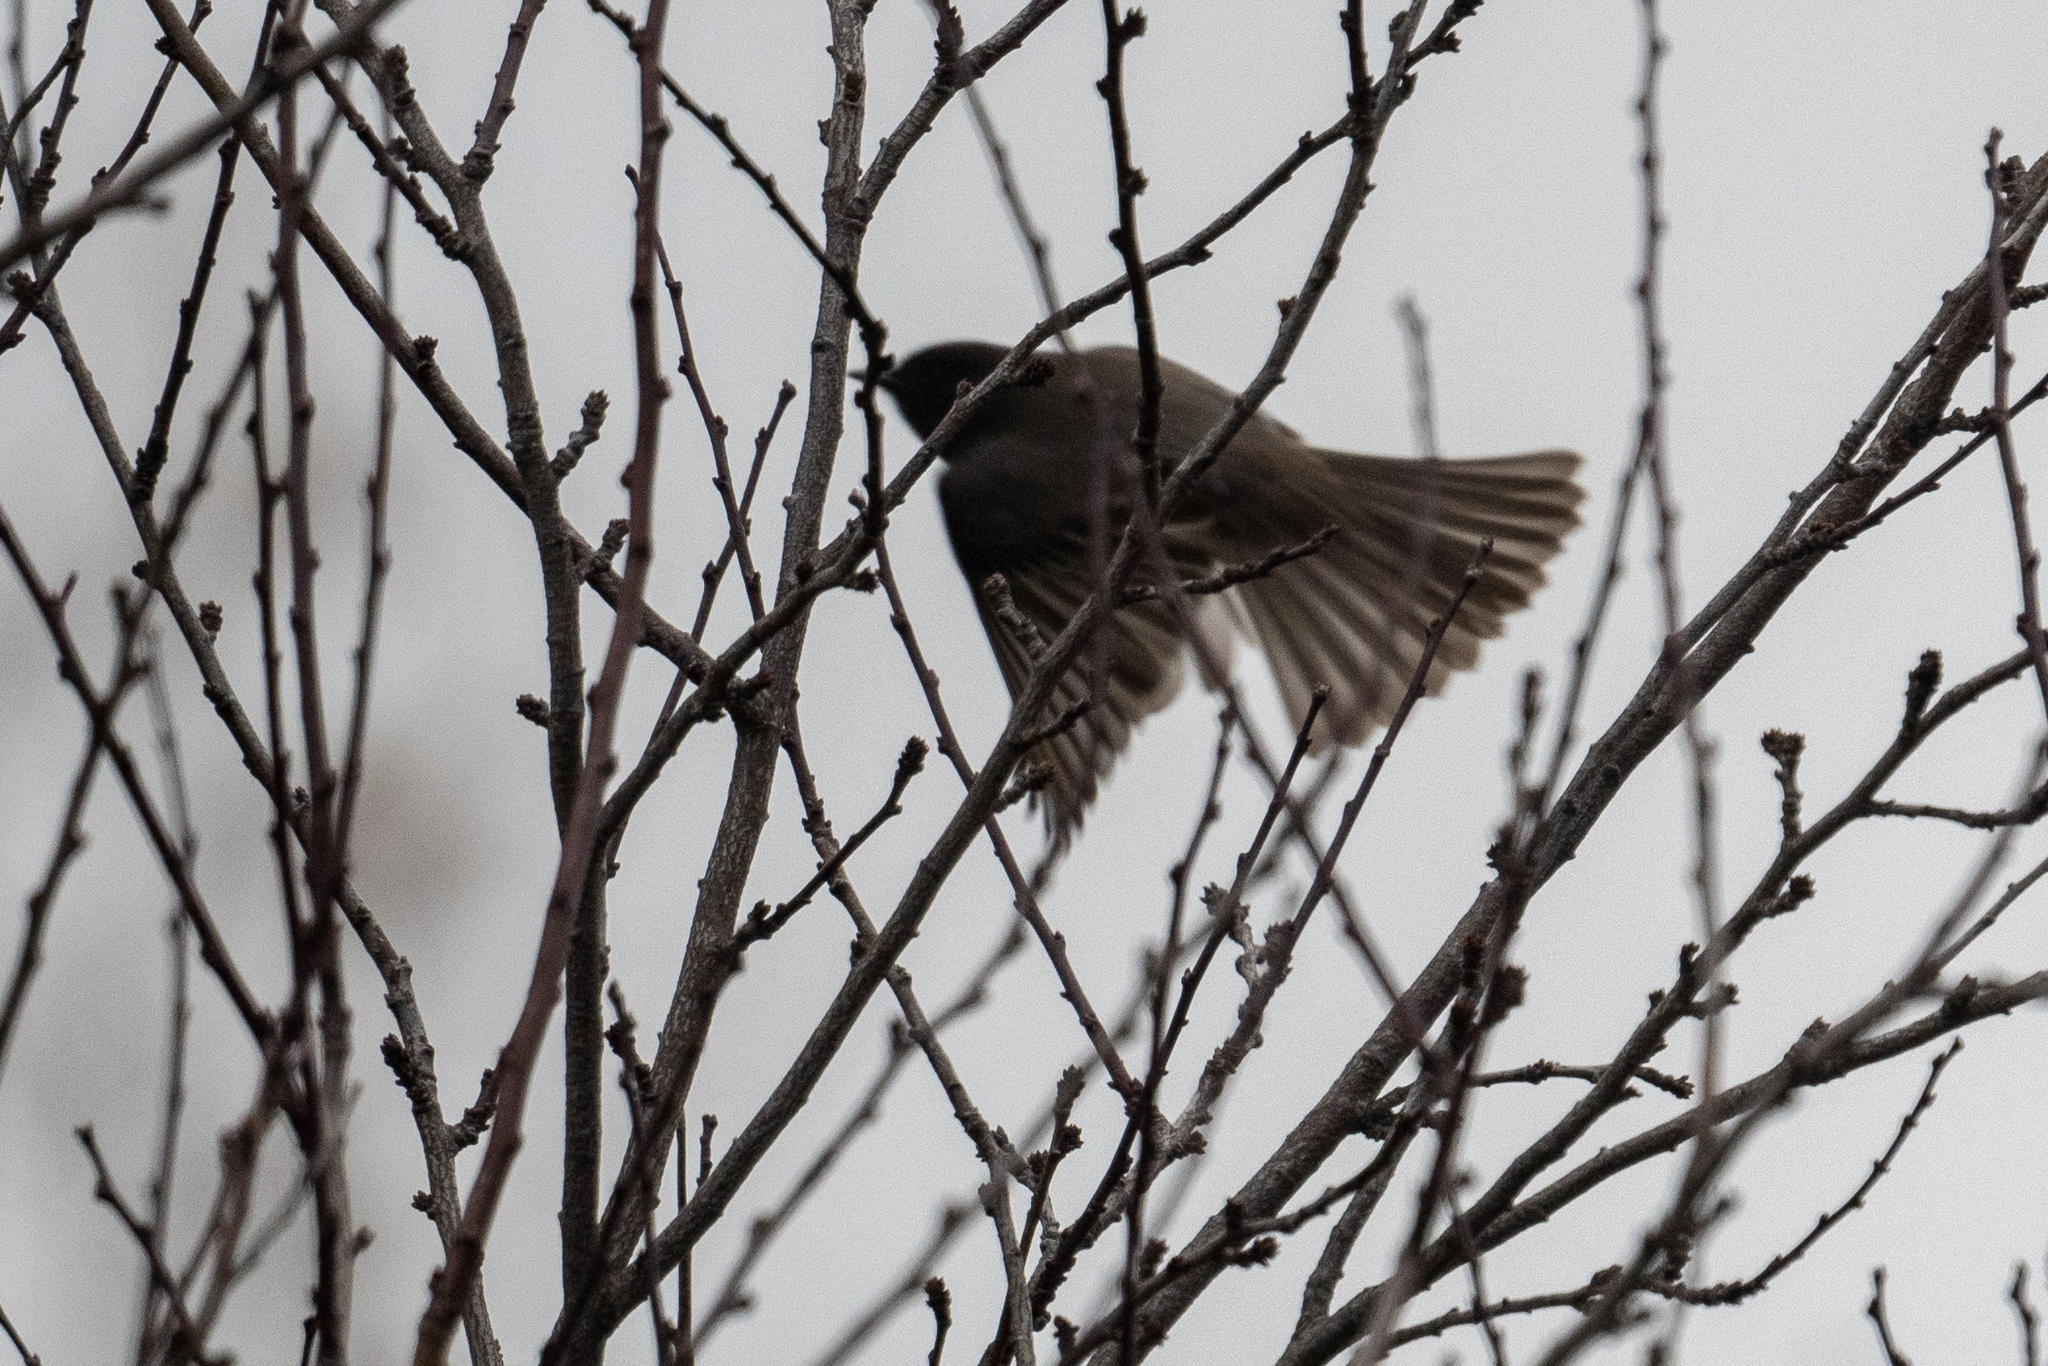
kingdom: Animalia
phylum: Chordata
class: Aves
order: Passeriformes
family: Tyrannidae
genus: Sayornis
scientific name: Sayornis nigricans
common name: Black phoebe
